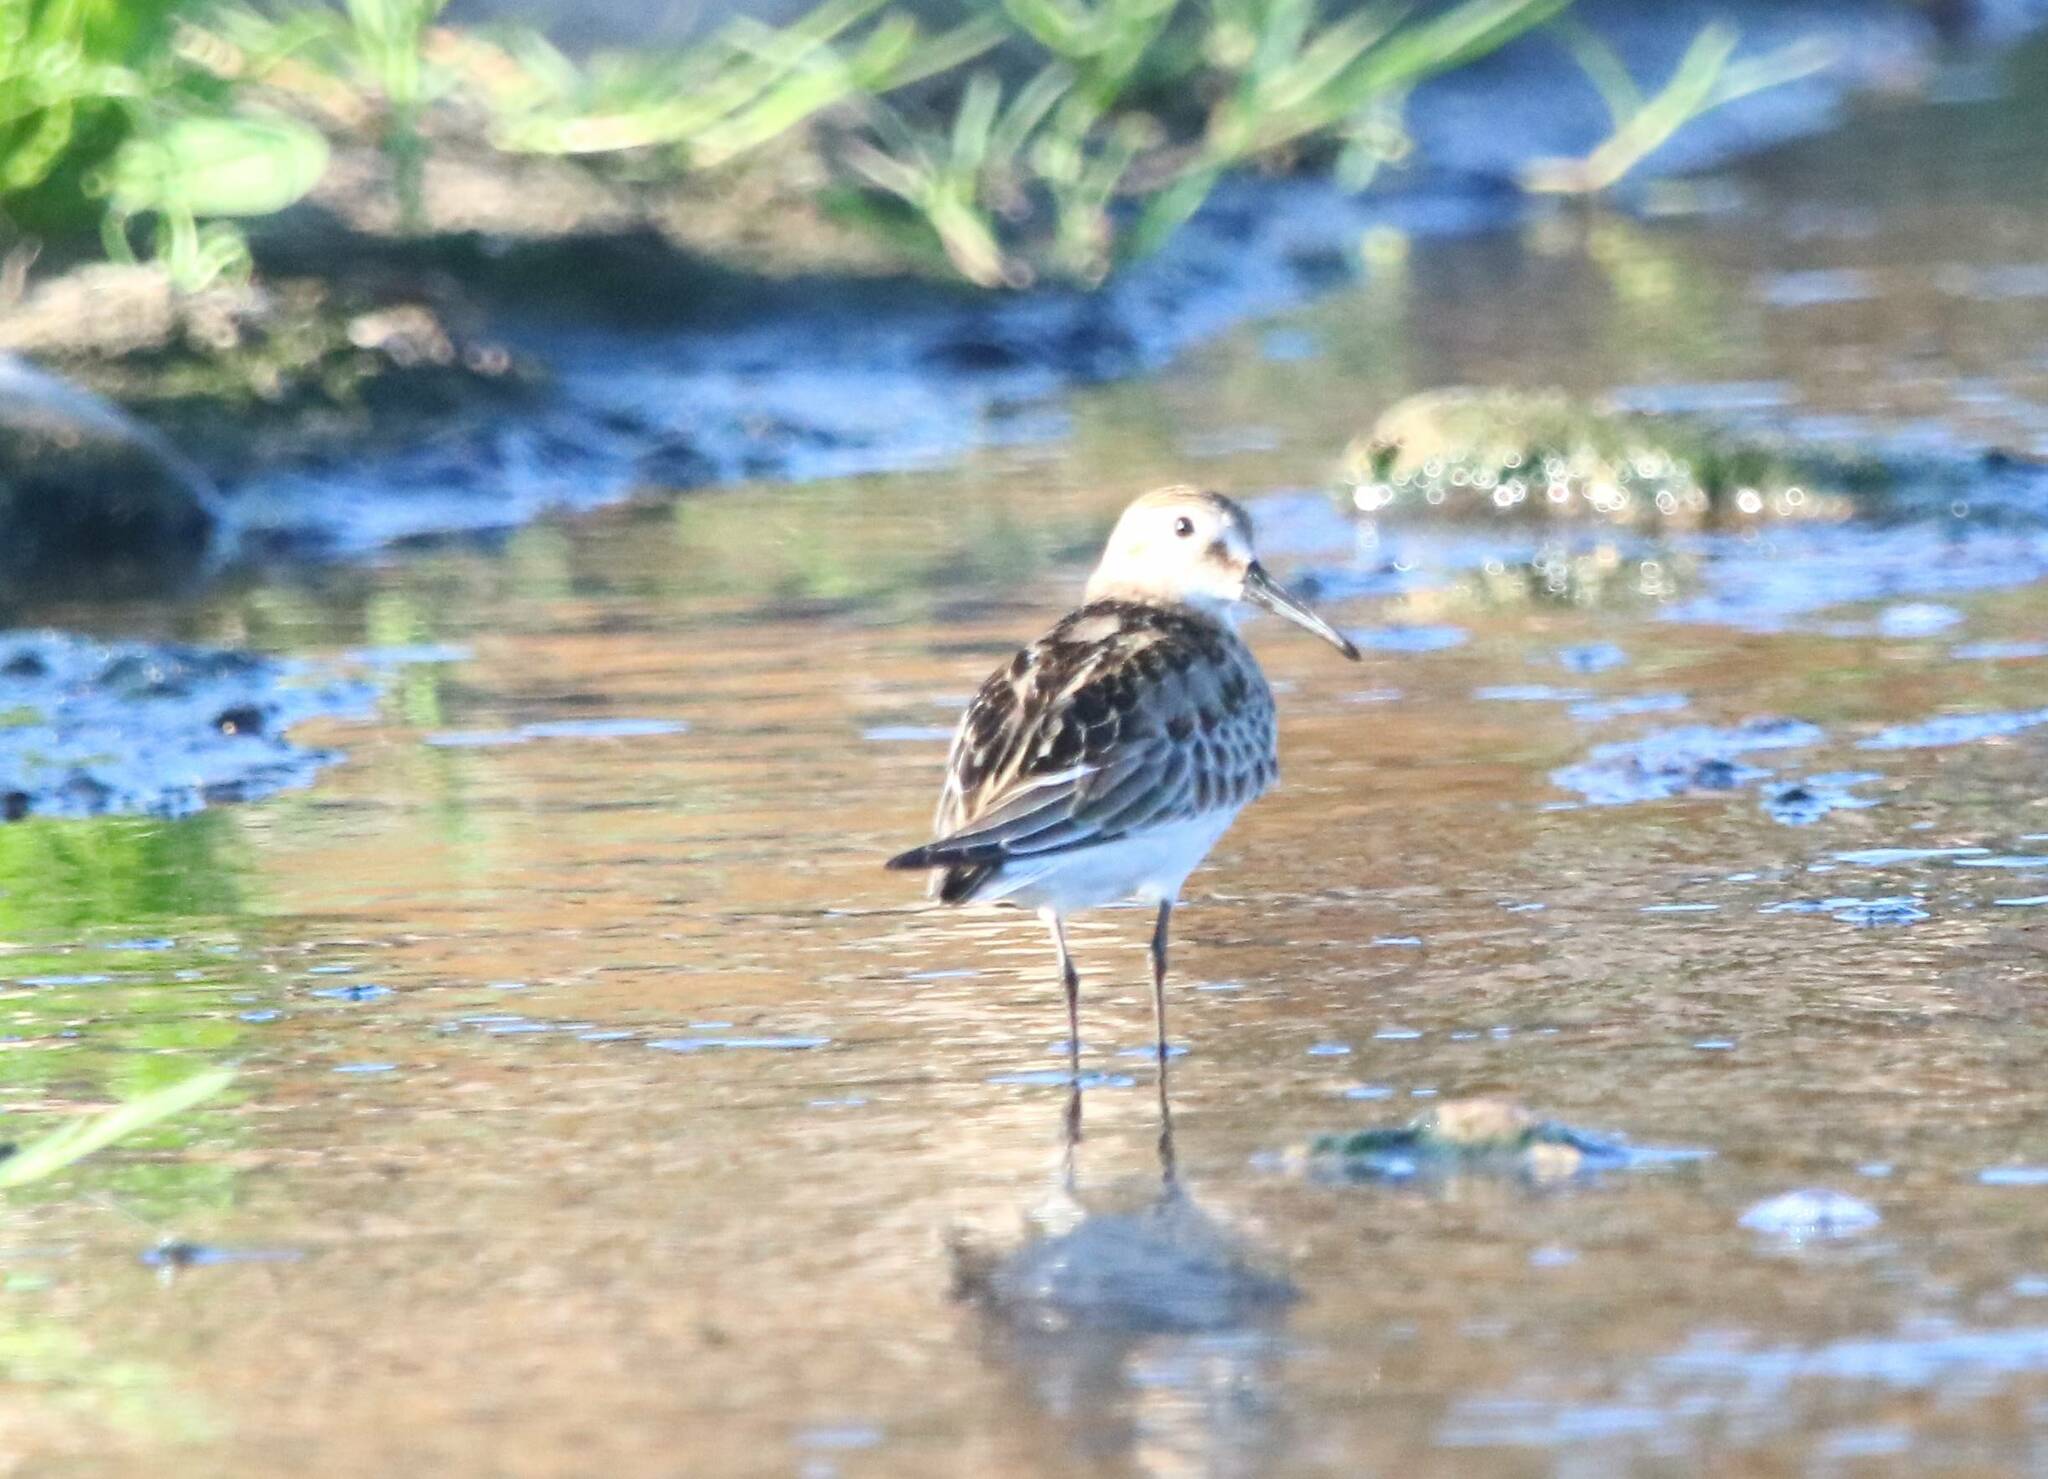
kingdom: Animalia
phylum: Chordata
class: Aves
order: Charadriiformes
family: Scolopacidae
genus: Calidris
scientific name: Calidris alpina
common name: Dunlin
